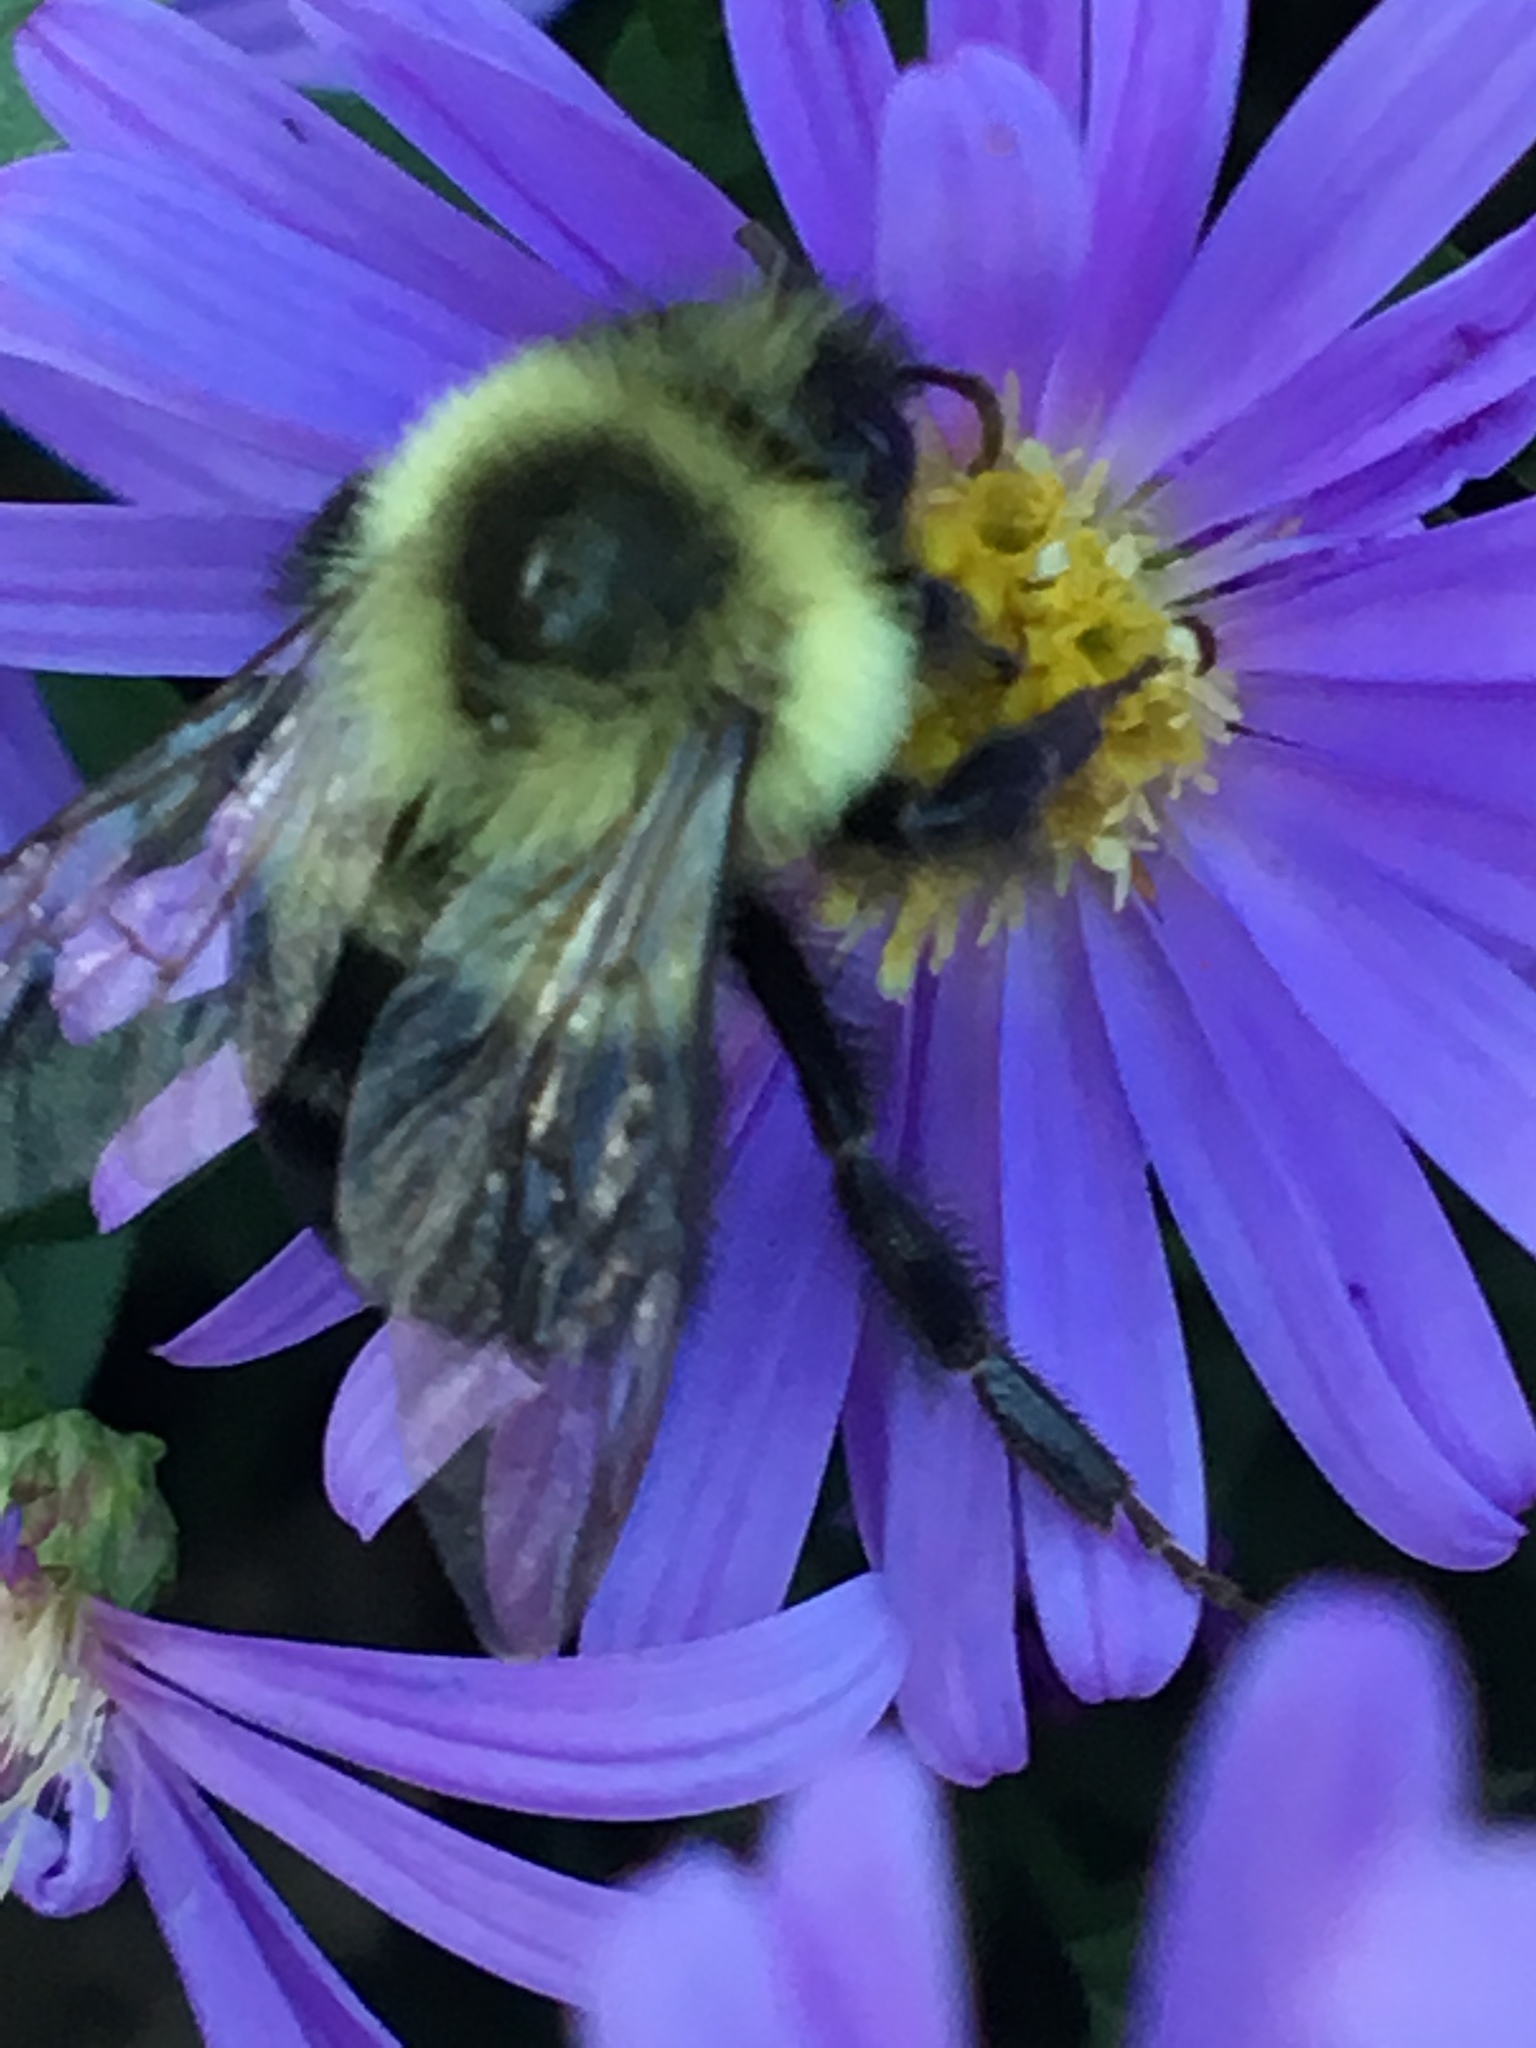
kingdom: Animalia
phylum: Arthropoda
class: Insecta
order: Hymenoptera
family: Apidae
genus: Bombus
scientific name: Bombus impatiens
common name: Common eastern bumble bee
